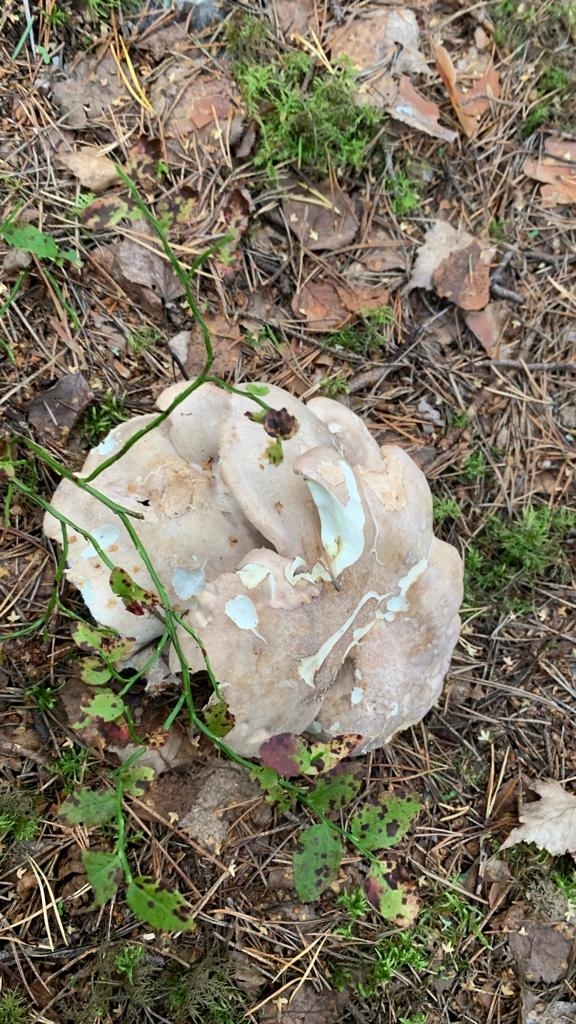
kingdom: Fungi
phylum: Basidiomycota
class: Agaricomycetes
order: Russulales
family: Albatrellaceae
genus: Albatrellus
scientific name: Albatrellus ovinus
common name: Forest lamb
